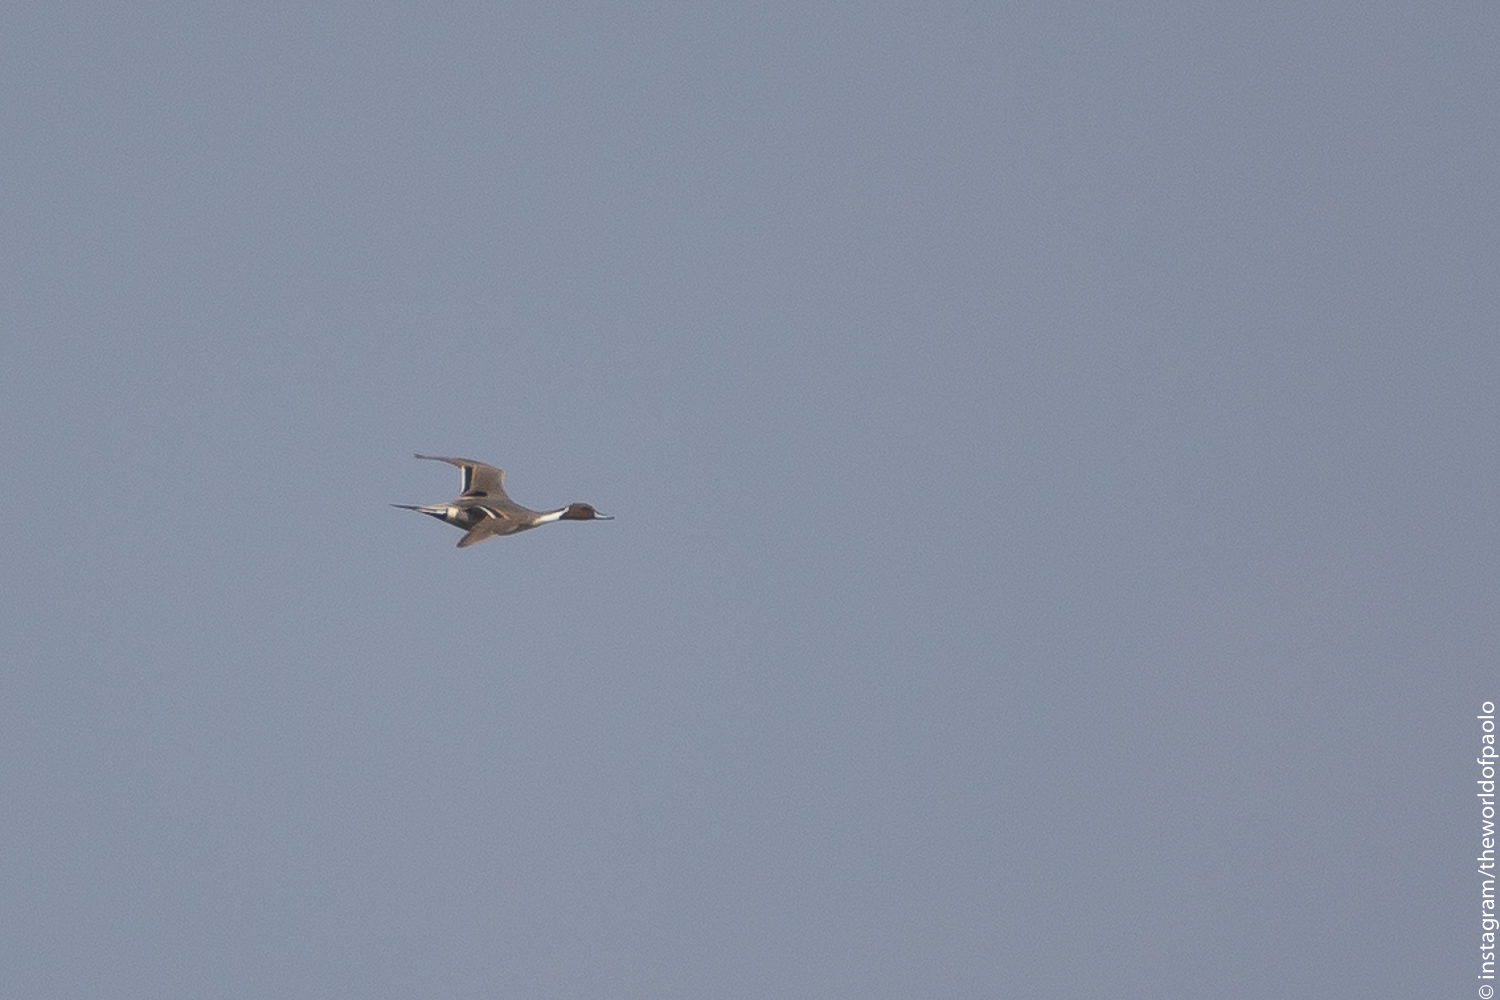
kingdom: Animalia
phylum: Chordata
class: Aves
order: Anseriformes
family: Anatidae
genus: Anas
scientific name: Anas acuta
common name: Northern pintail
